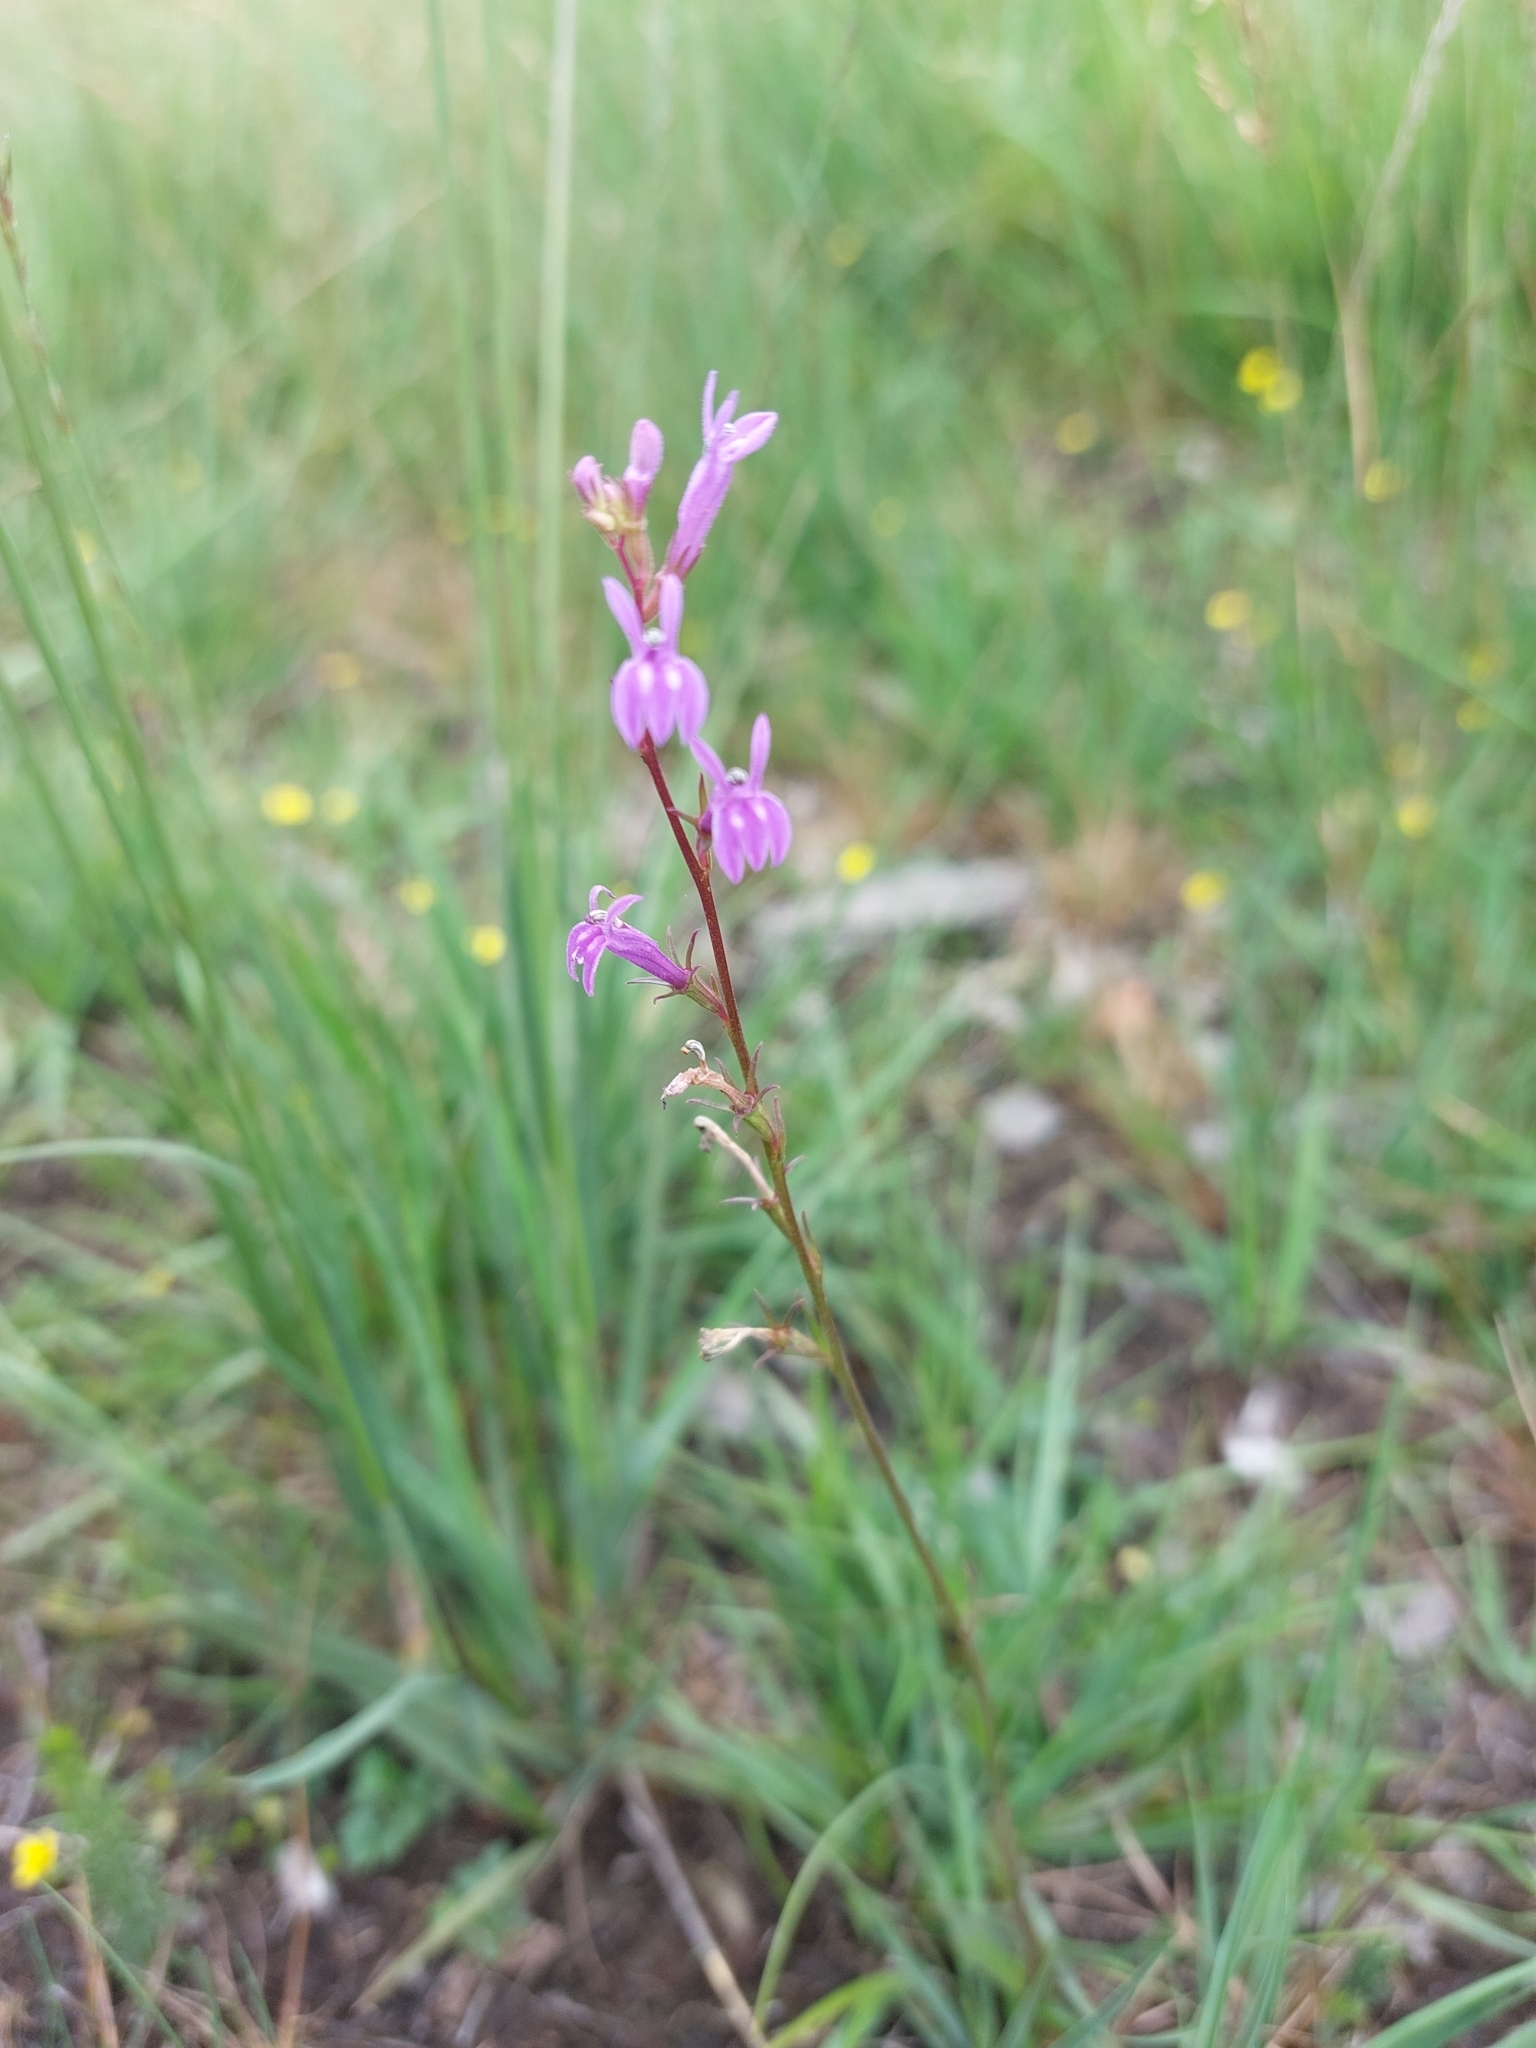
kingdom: Plantae
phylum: Tracheophyta
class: Magnoliopsida
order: Asterales
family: Campanulaceae
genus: Lobelia
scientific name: Lobelia urens
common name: Heath lobelia
